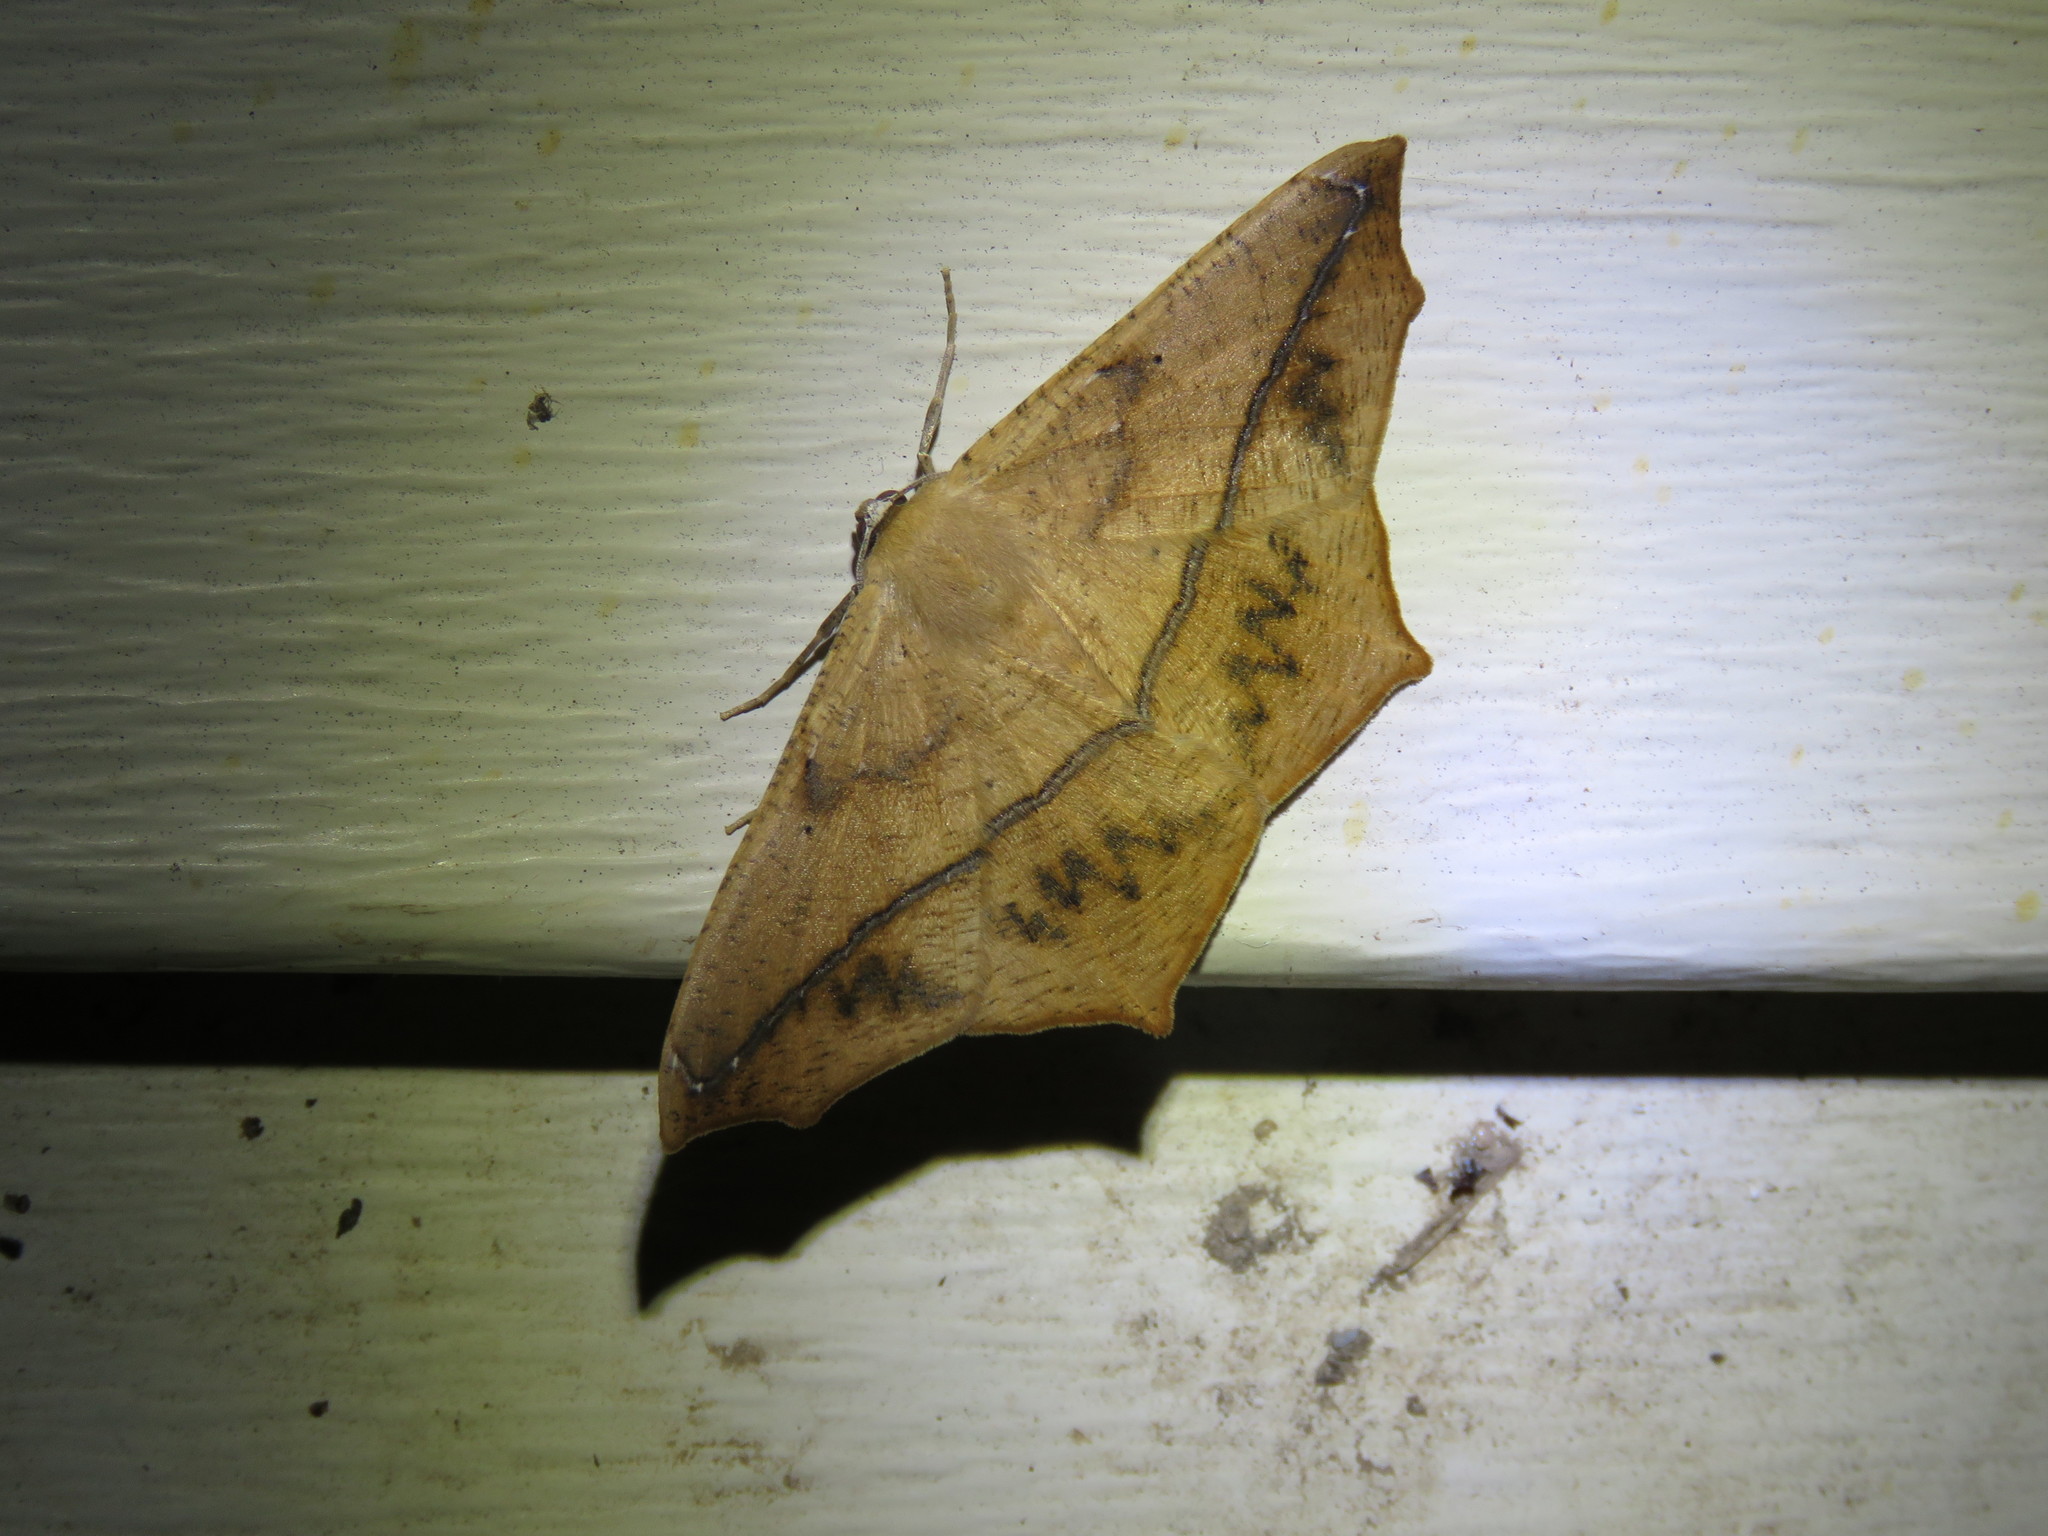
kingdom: Animalia
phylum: Arthropoda
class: Insecta
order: Lepidoptera
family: Geometridae
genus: Prochoerodes
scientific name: Prochoerodes lineola
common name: Large maple spanworm
